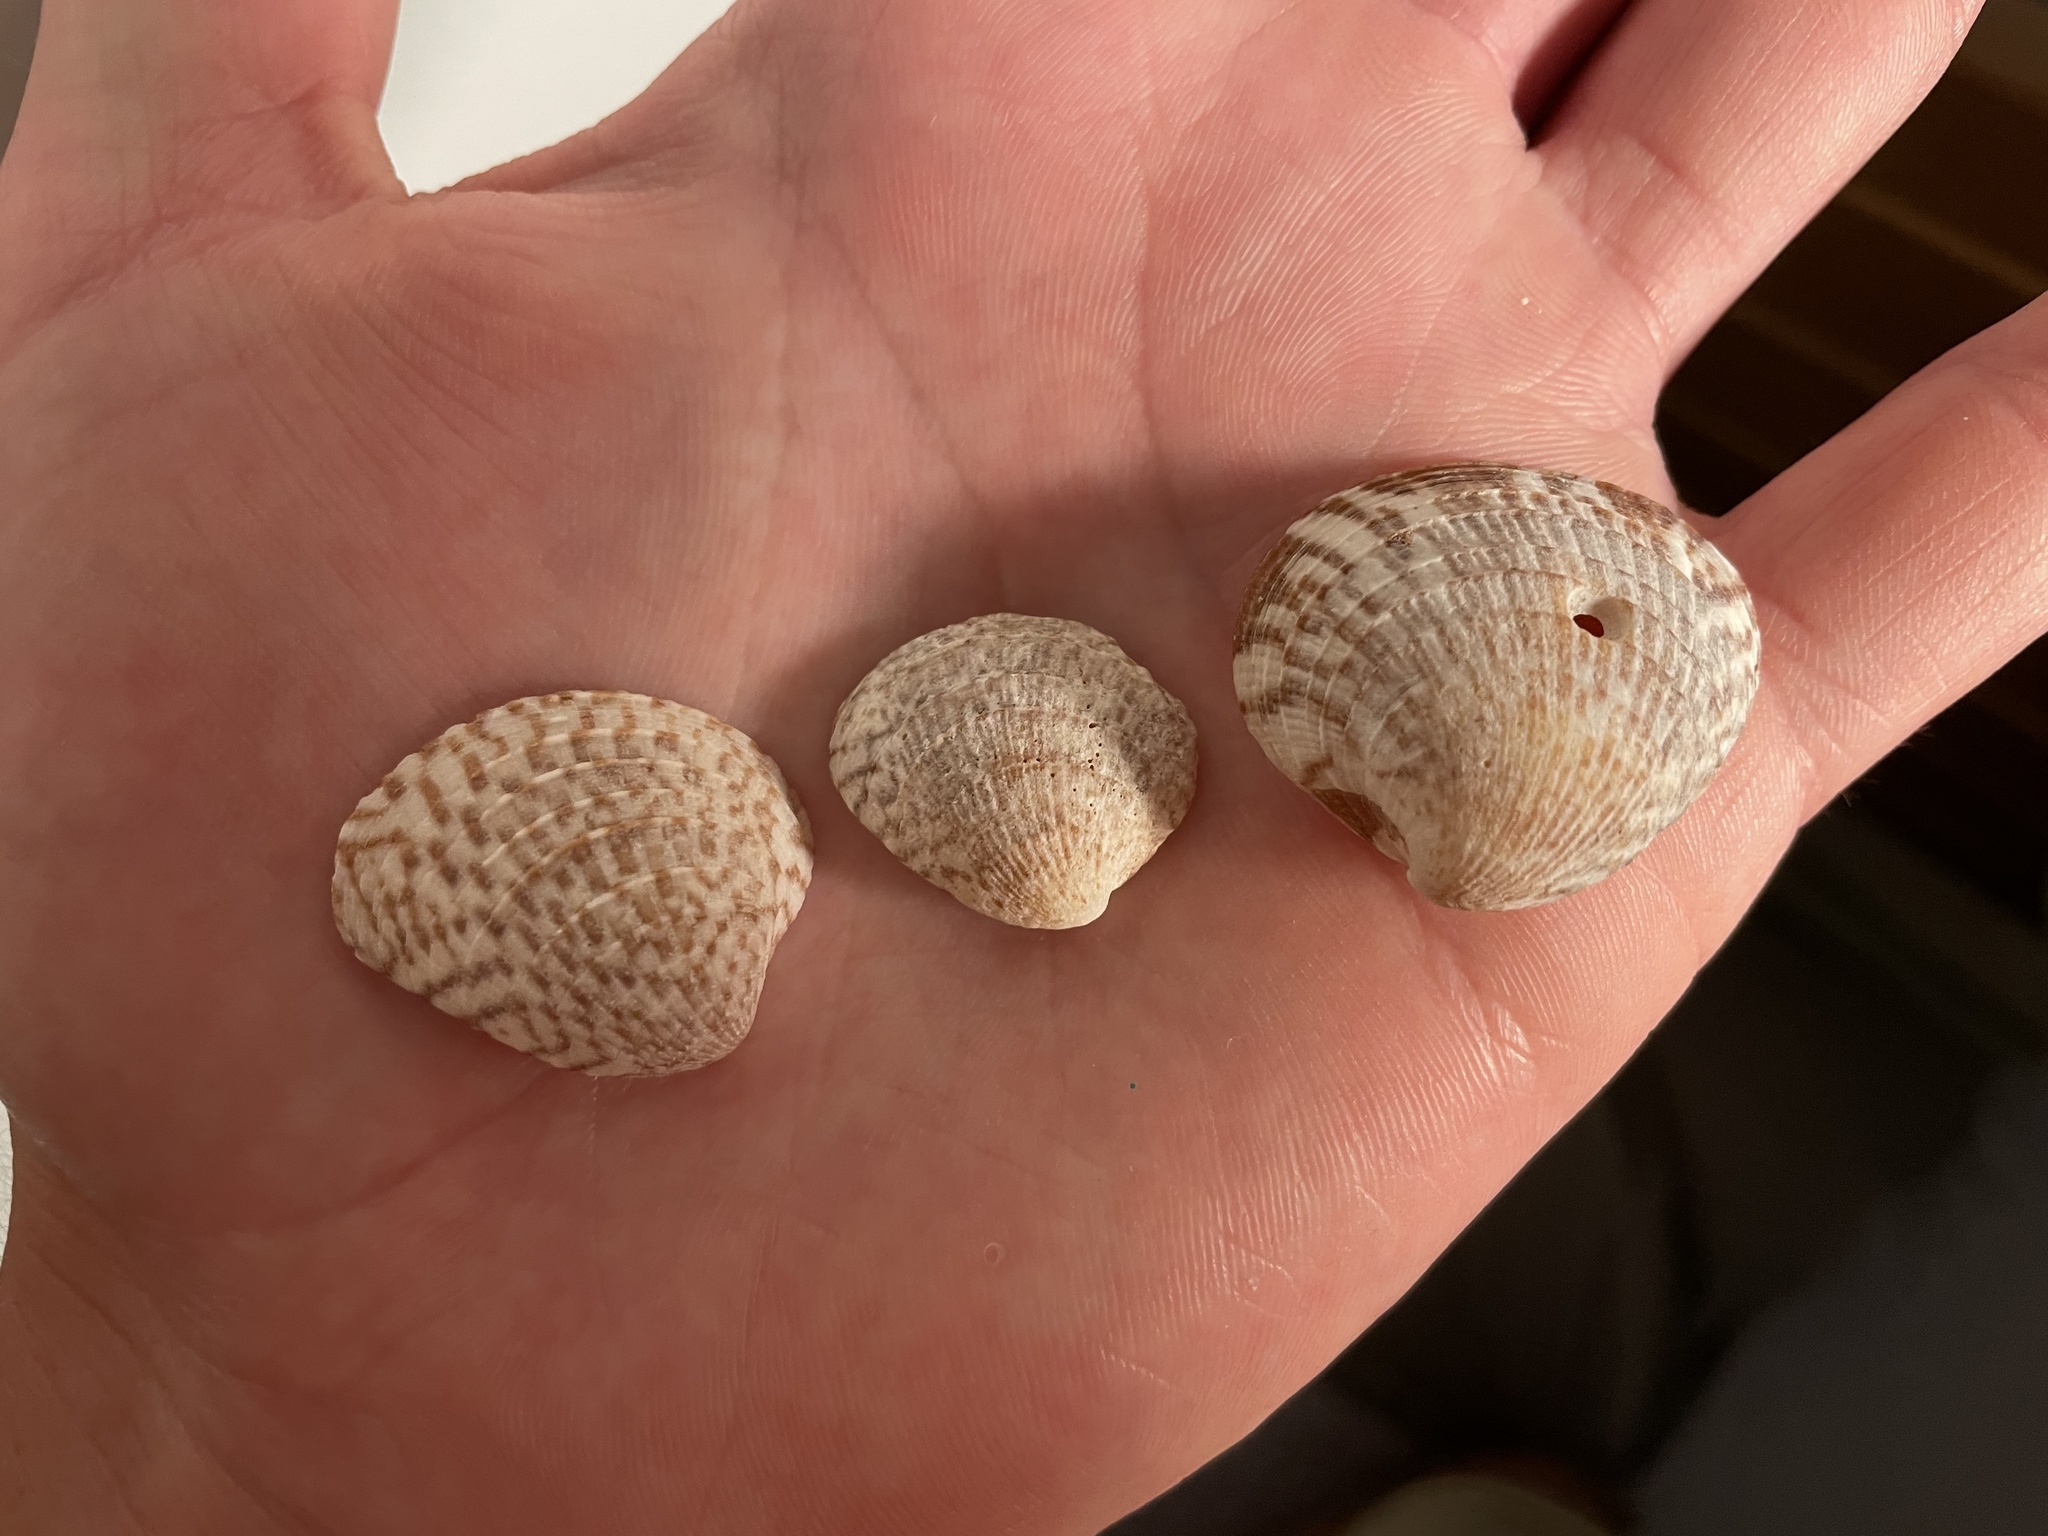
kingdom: Animalia
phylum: Mollusca
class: Bivalvia
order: Venerida
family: Veneridae
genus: Chione
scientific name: Chione cancellata
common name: Cross-barred venus
